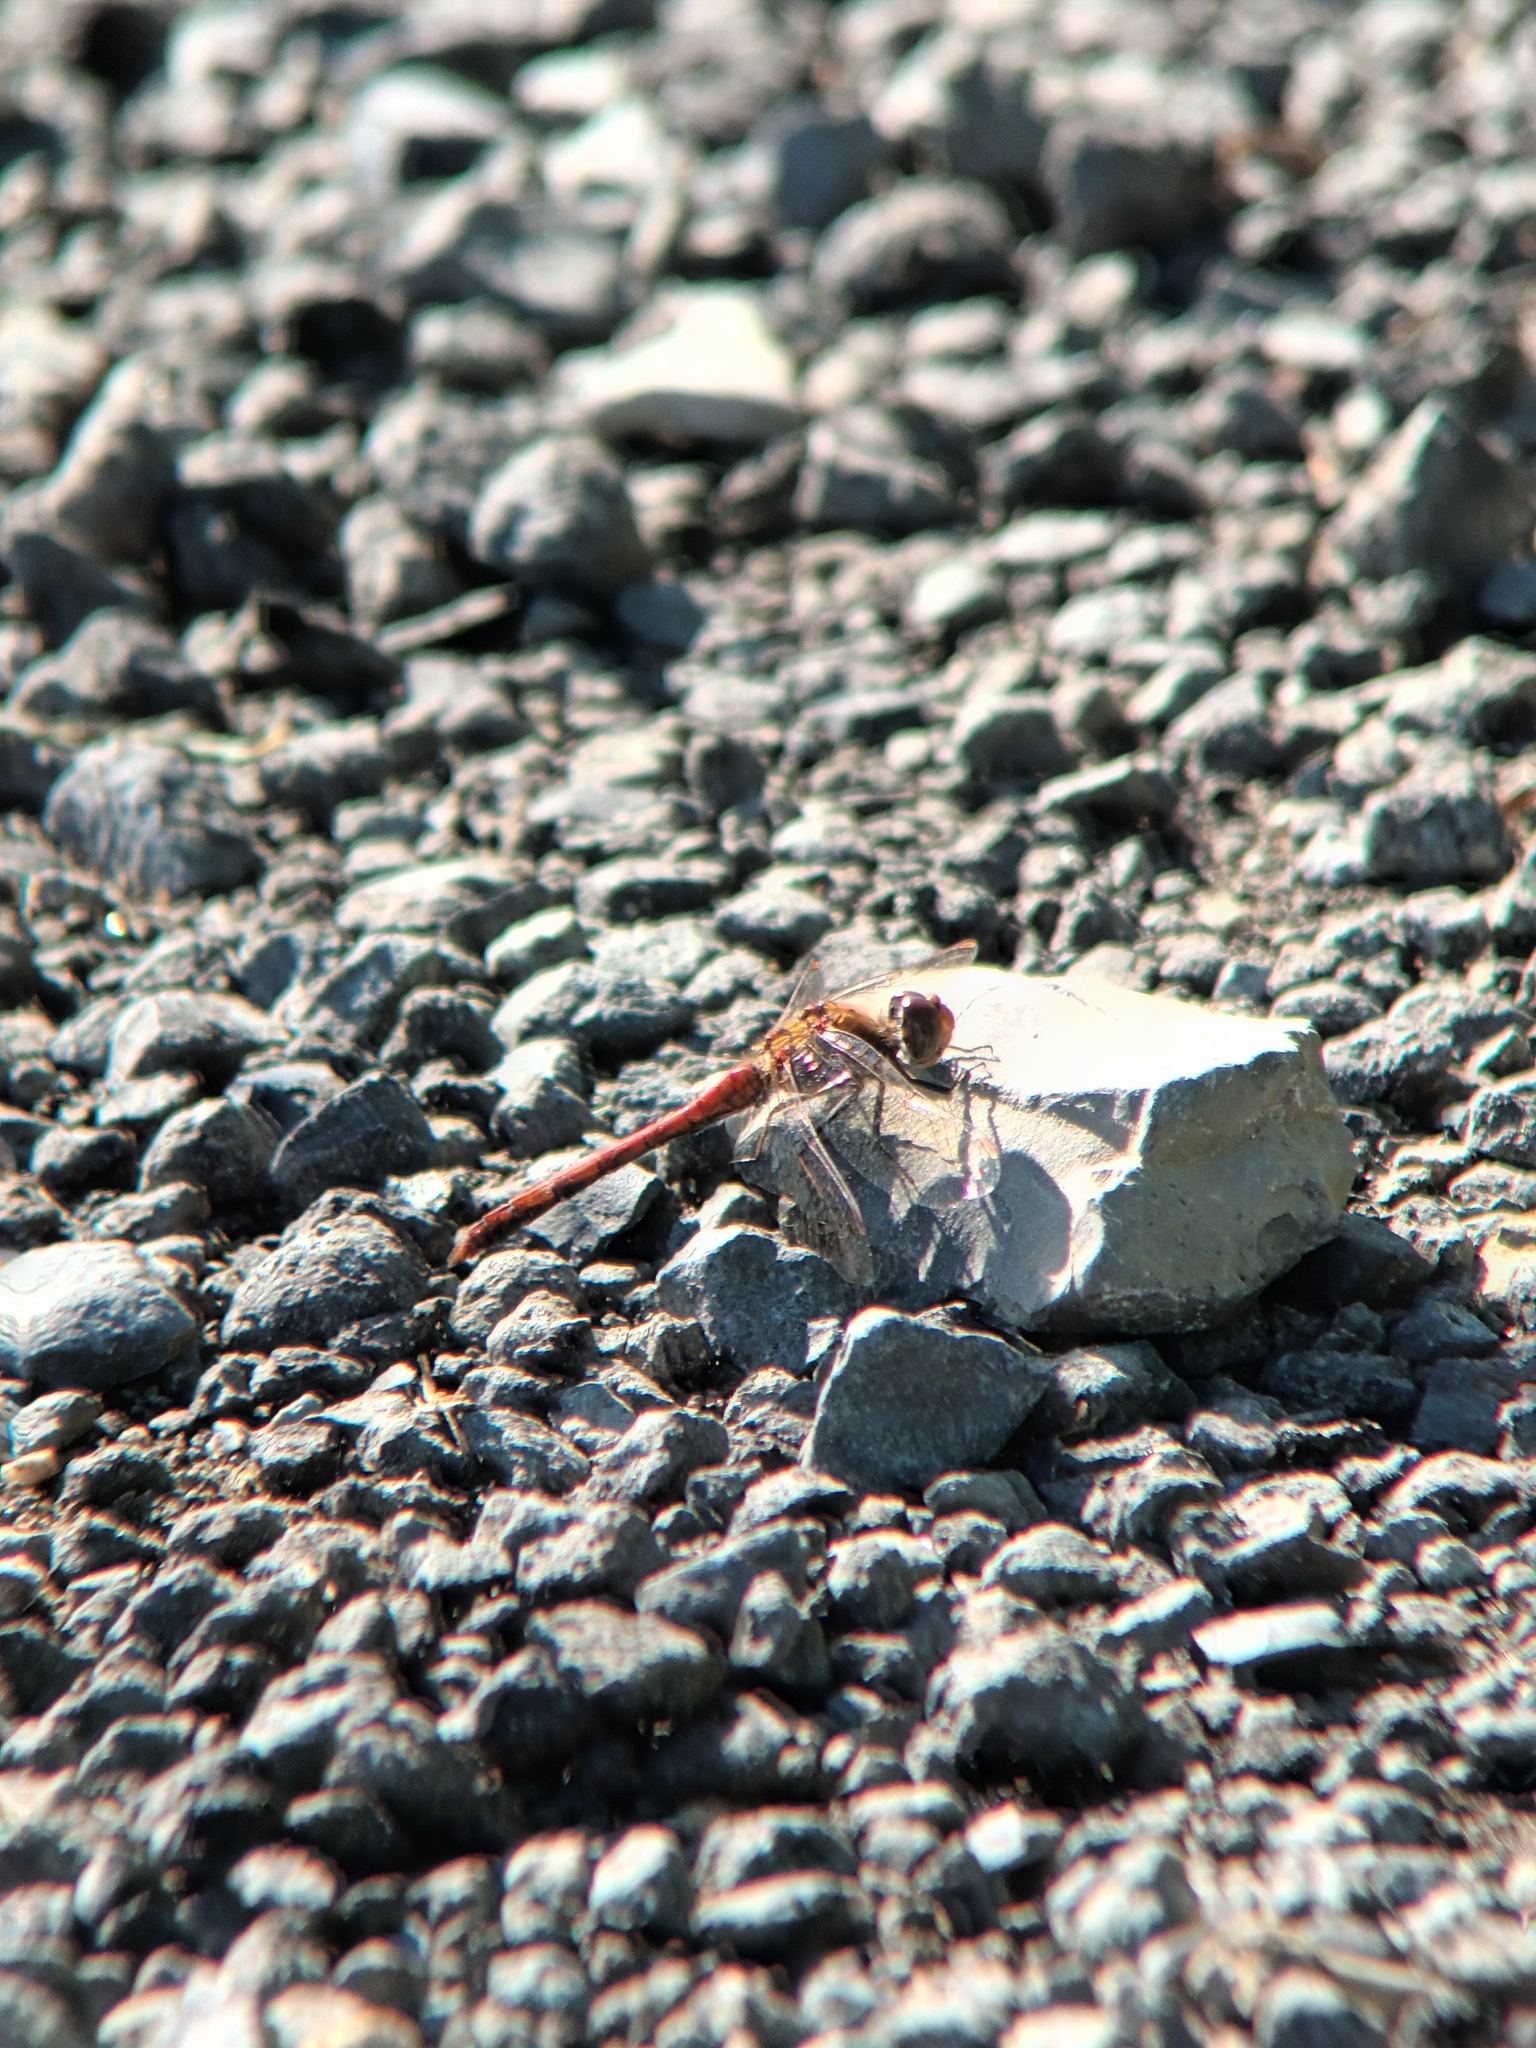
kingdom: Animalia
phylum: Arthropoda
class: Insecta
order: Odonata
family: Libellulidae
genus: Sympetrum
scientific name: Sympetrum striolatum
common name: Common darter
